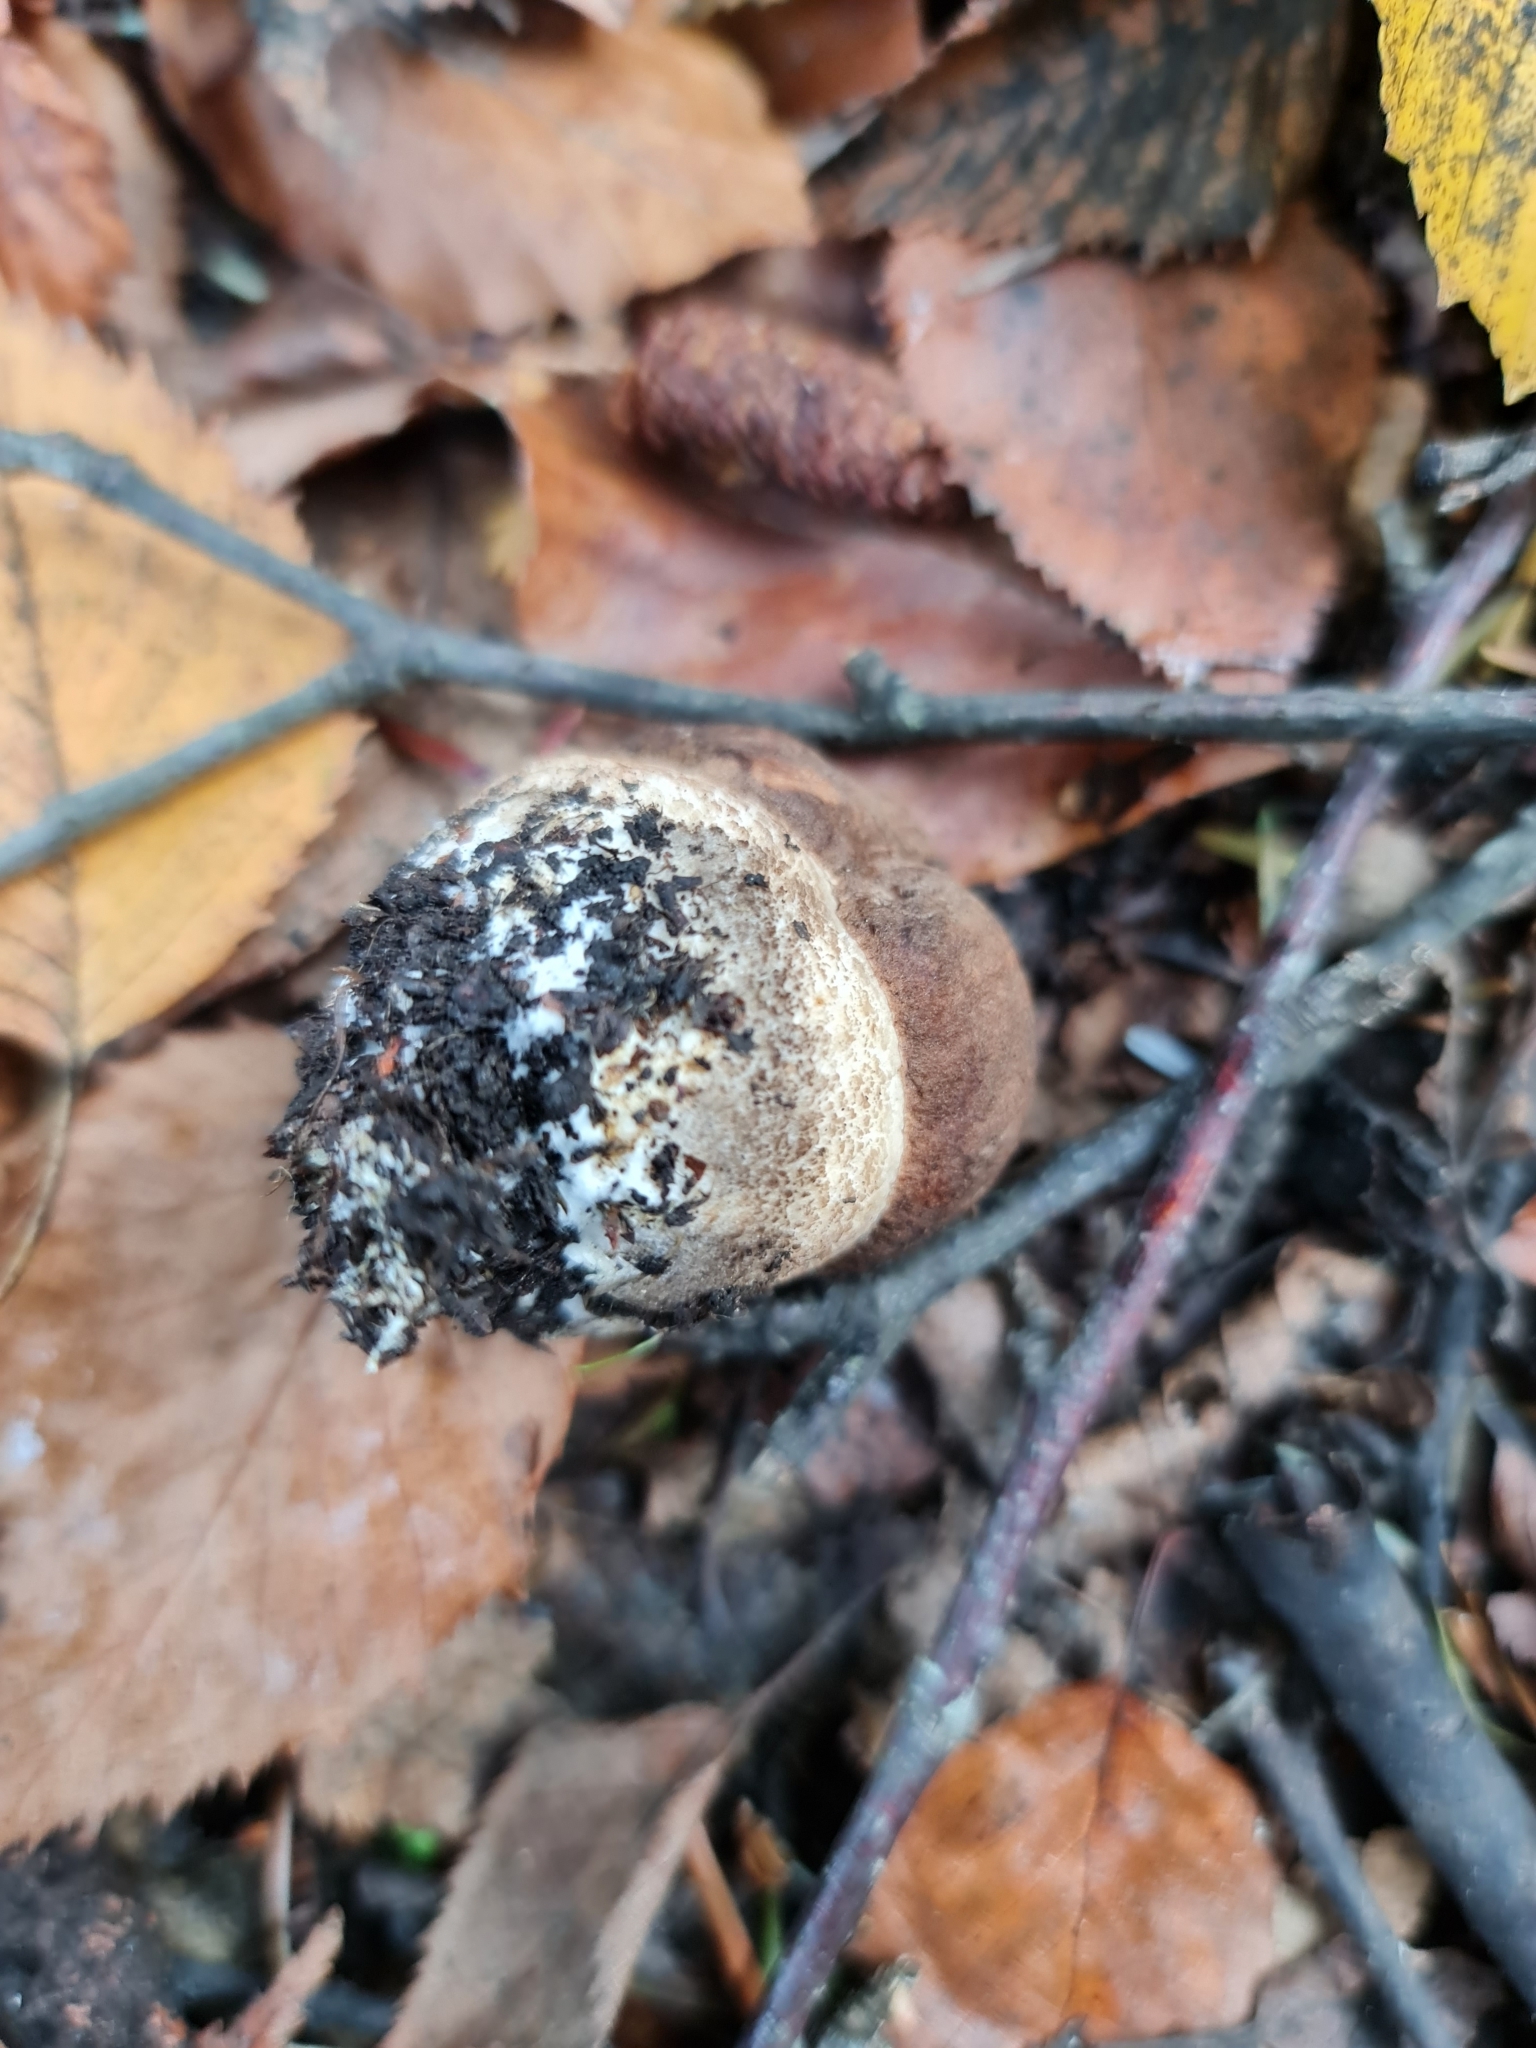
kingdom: Fungi
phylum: Basidiomycota
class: Agaricomycetes
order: Boletales
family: Boletaceae
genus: Leccinum
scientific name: Leccinum scabrum
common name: Blushing bolete
